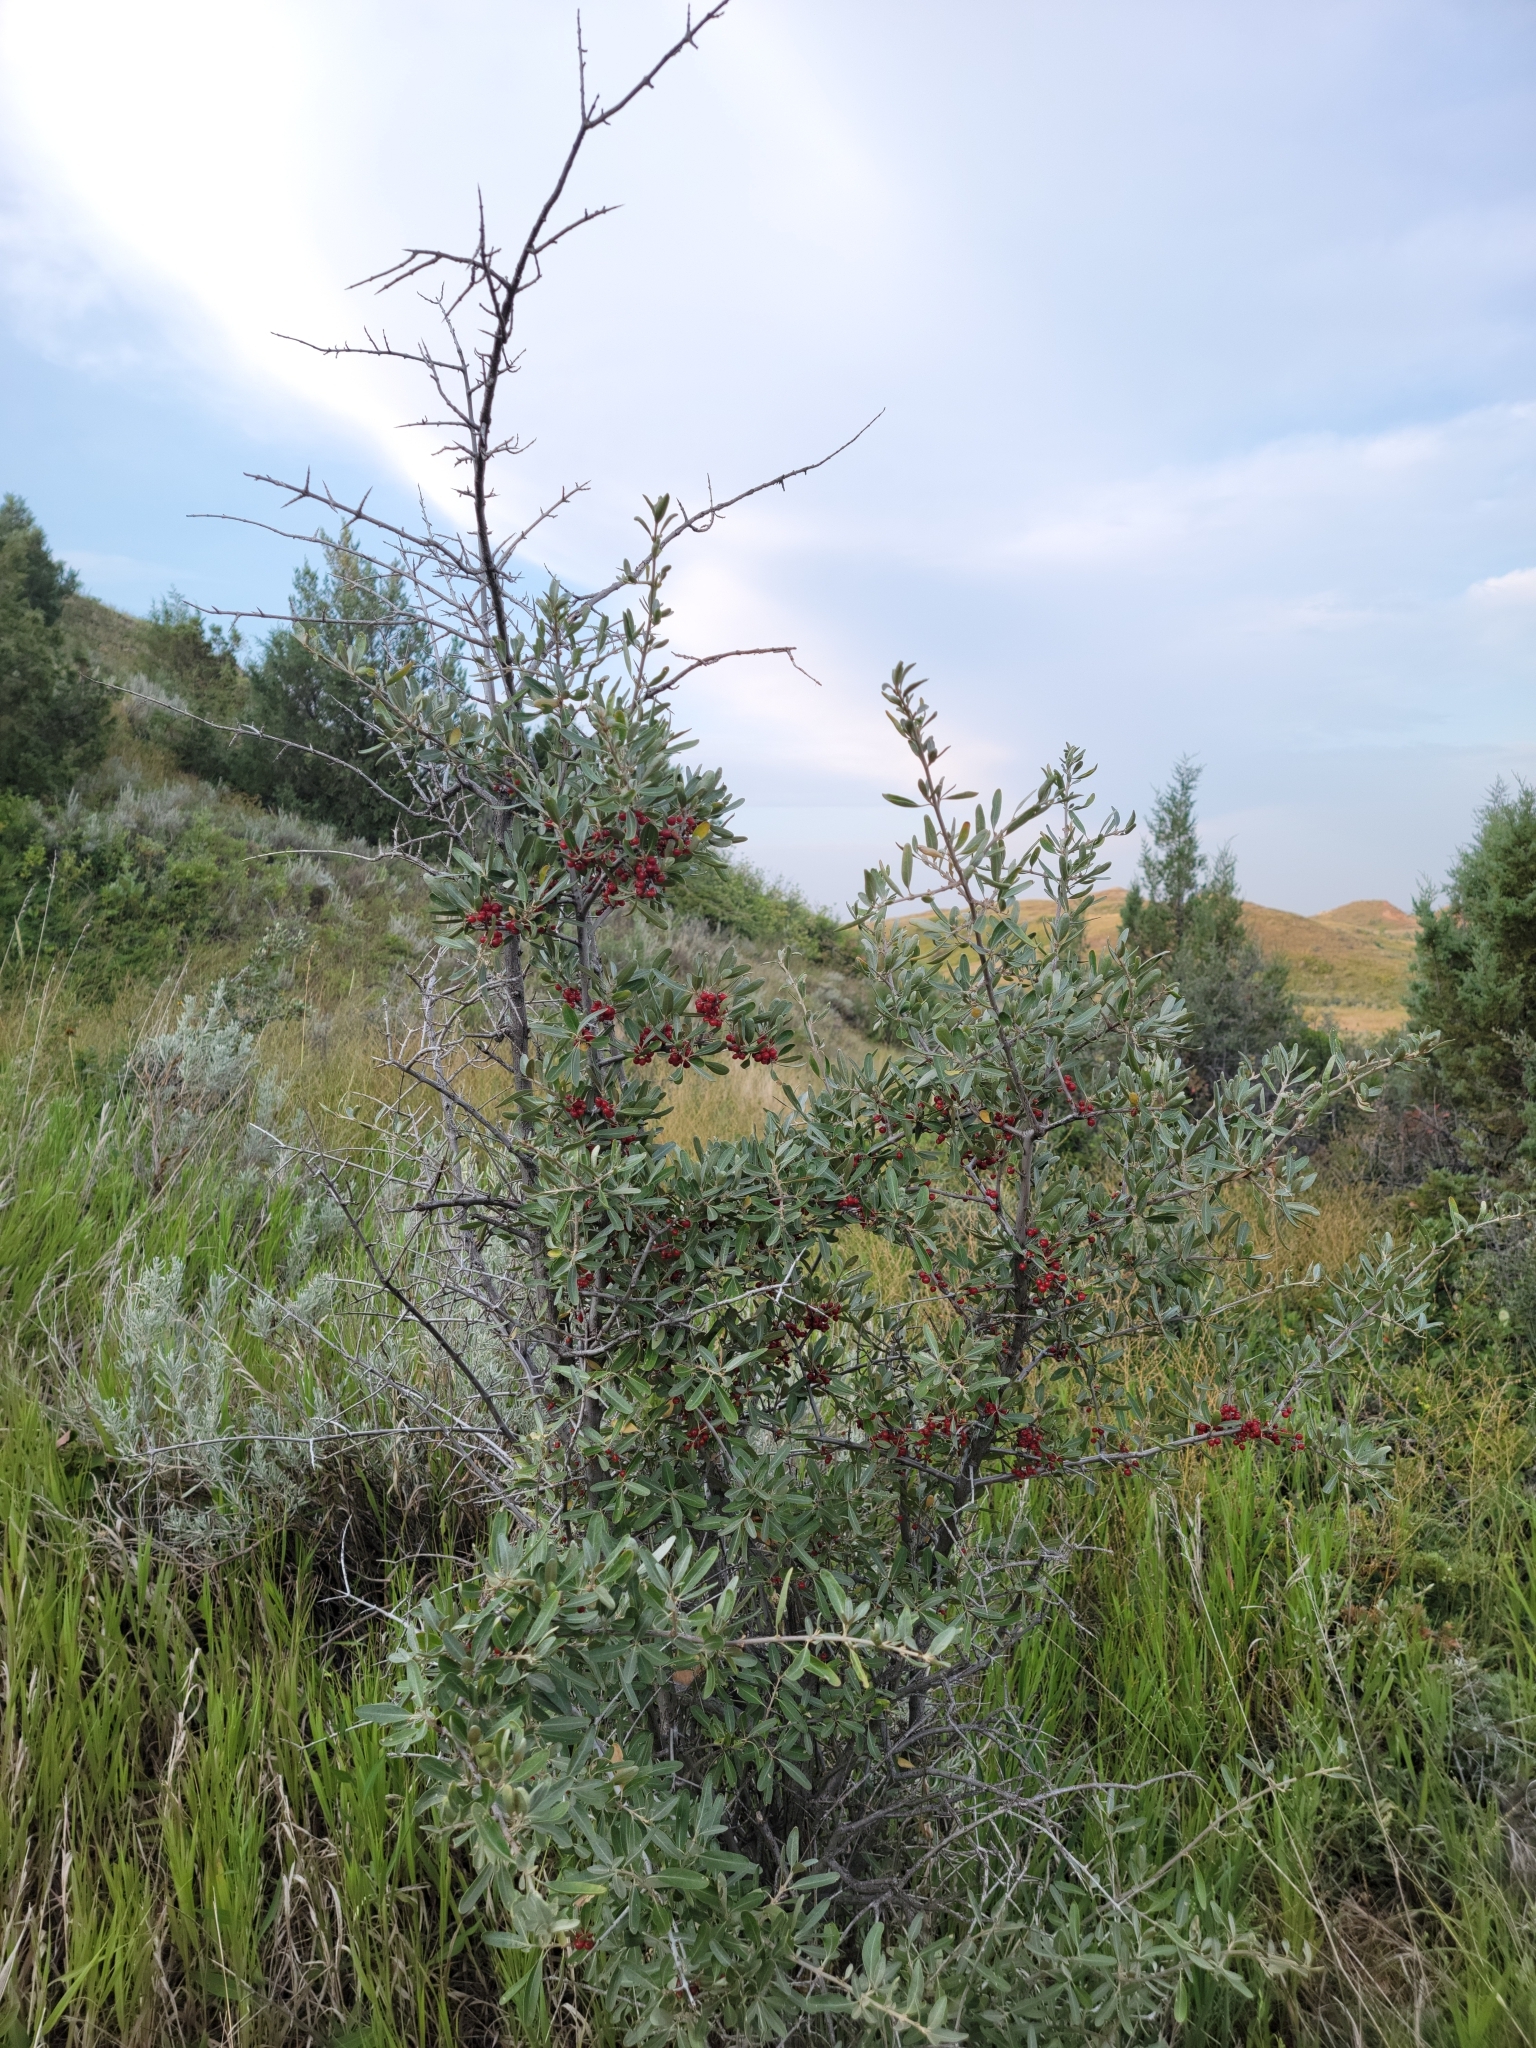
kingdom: Plantae
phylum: Tracheophyta
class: Magnoliopsida
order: Rosales
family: Elaeagnaceae
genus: Shepherdia
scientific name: Shepherdia argentea
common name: Silver buffaloberry
